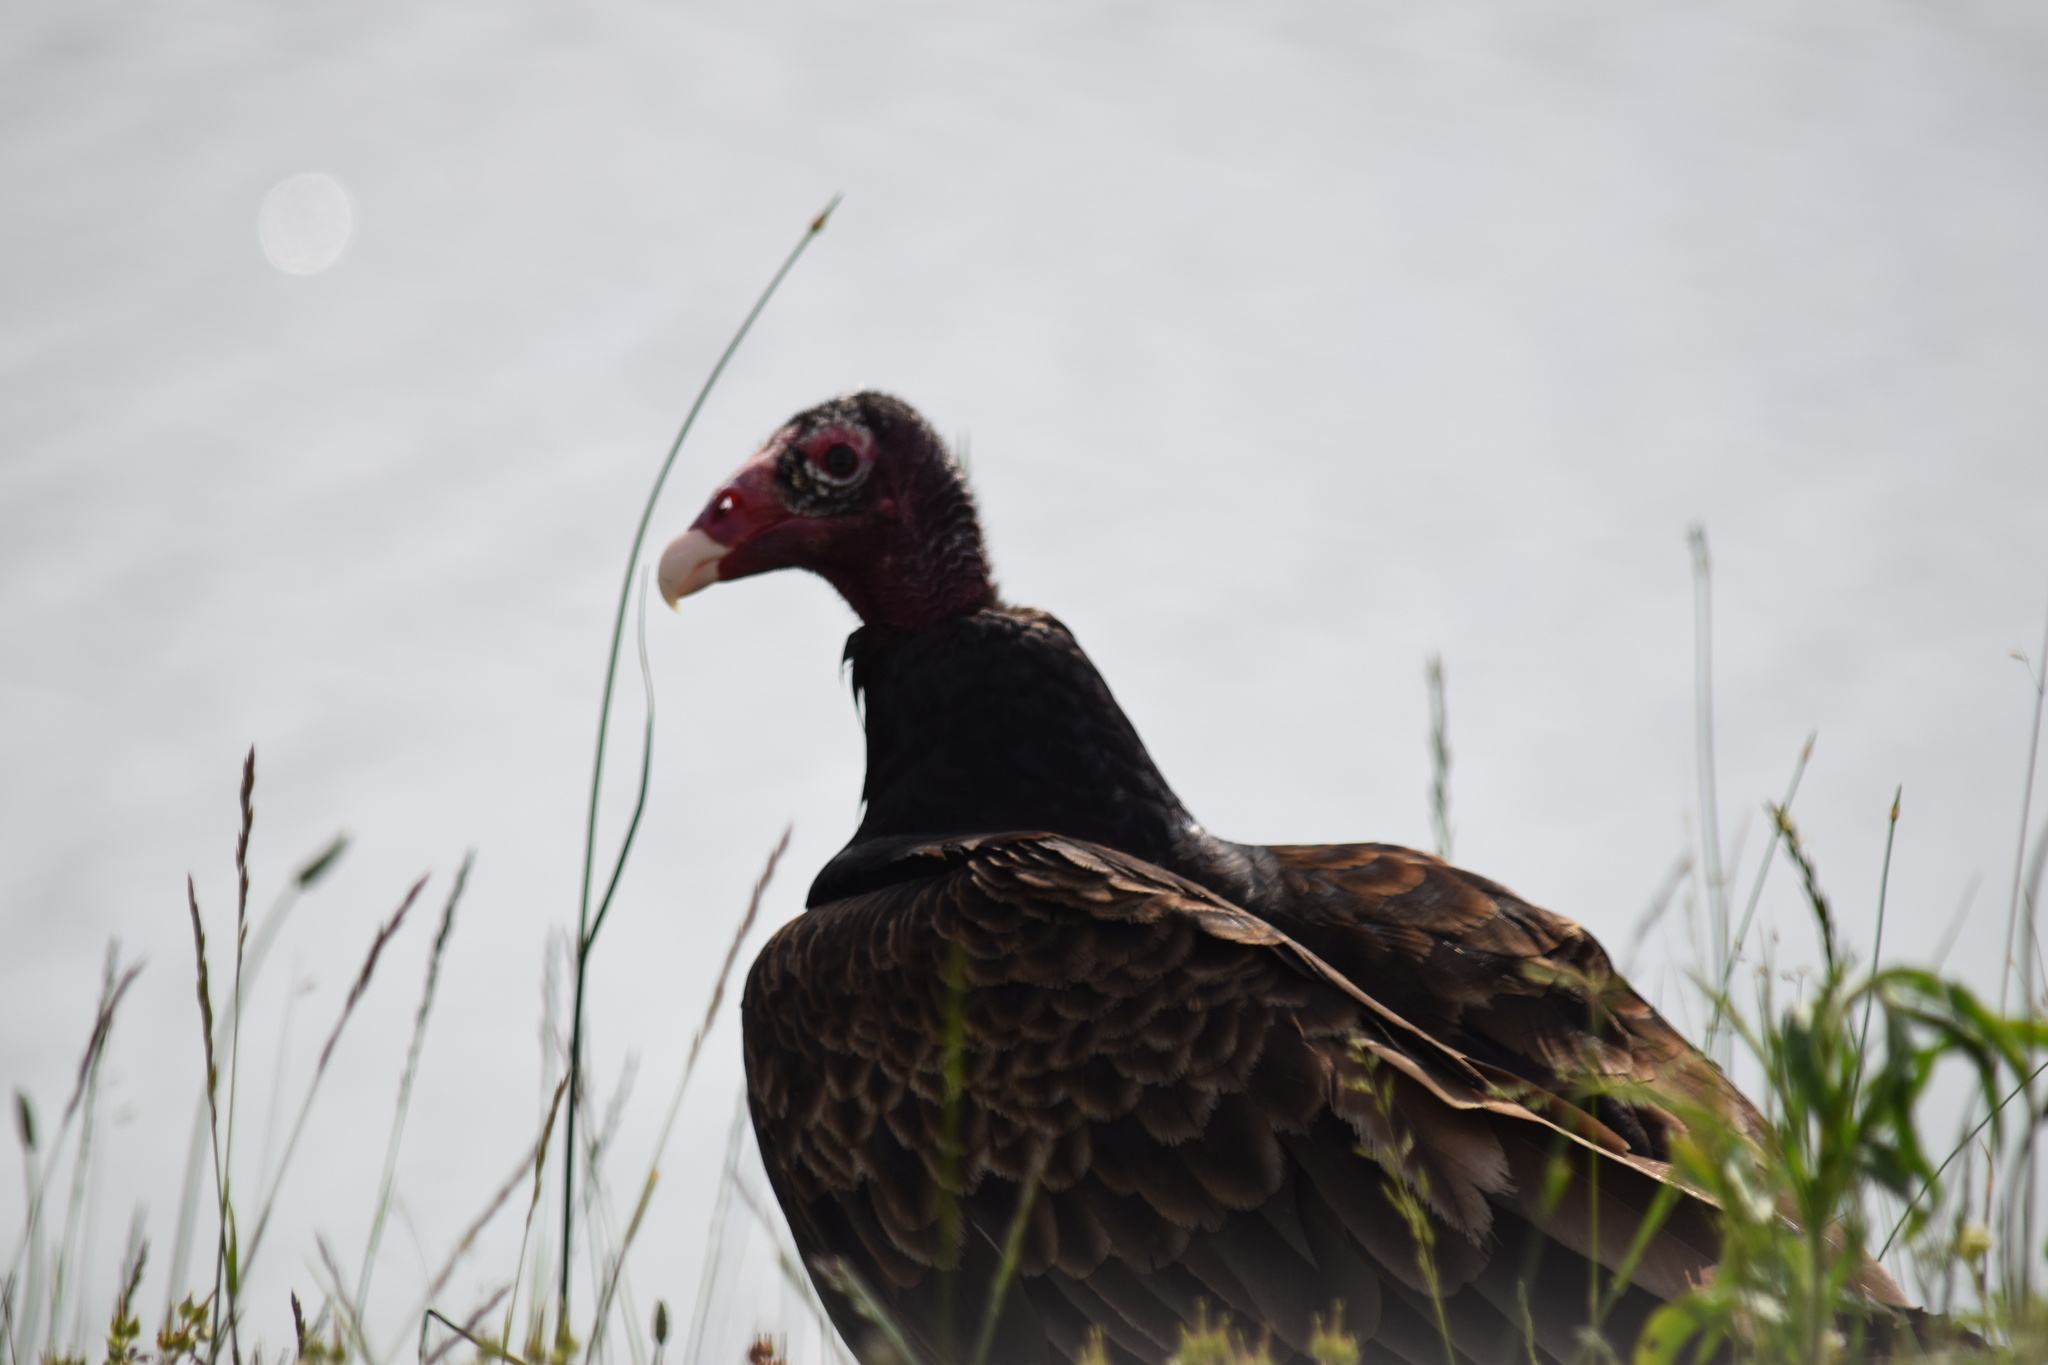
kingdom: Animalia
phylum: Chordata
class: Aves
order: Accipitriformes
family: Cathartidae
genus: Cathartes
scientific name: Cathartes aura
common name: Turkey vulture
